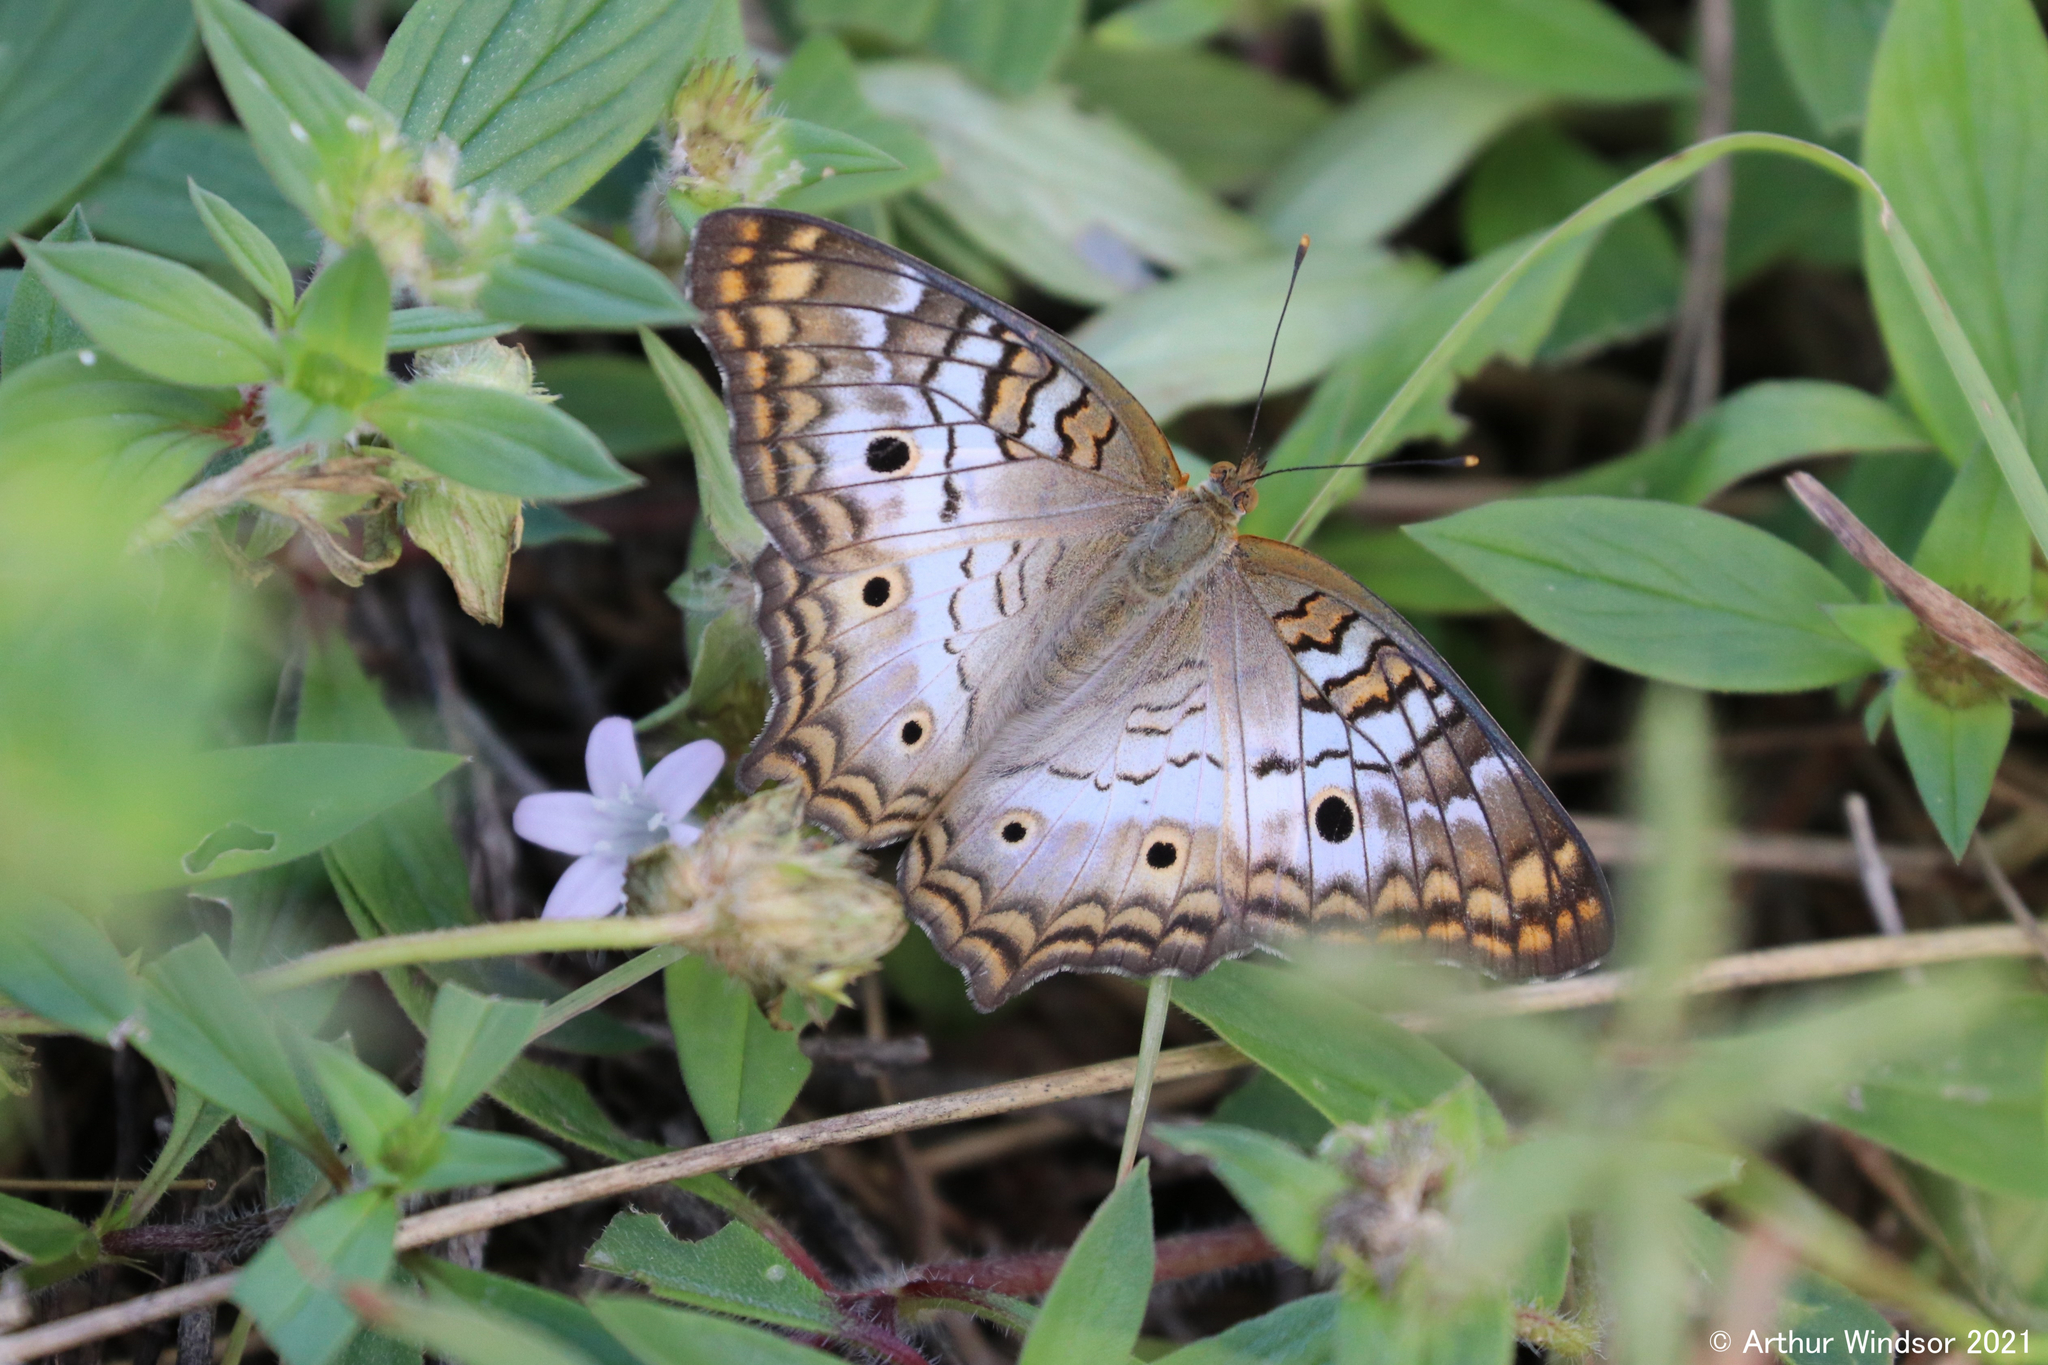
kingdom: Animalia
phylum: Arthropoda
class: Insecta
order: Lepidoptera
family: Nymphalidae
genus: Anartia
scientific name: Anartia jatrophae
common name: White peacock
